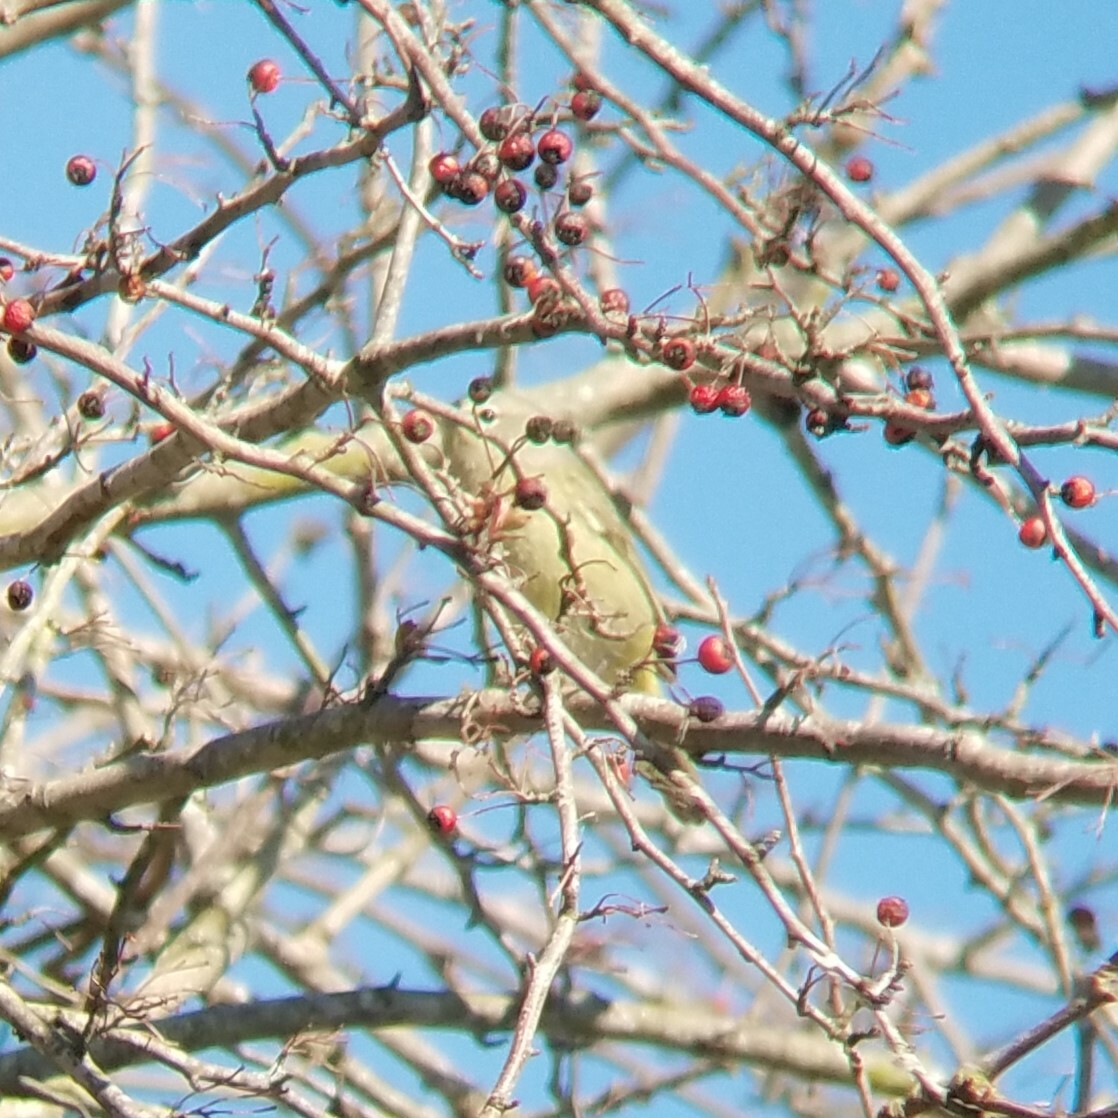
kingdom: Animalia
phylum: Chordata
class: Aves
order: Passeriformes
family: Parulidae
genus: Leiothlypis
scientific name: Leiothlypis celata
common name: Orange-crowned warbler
